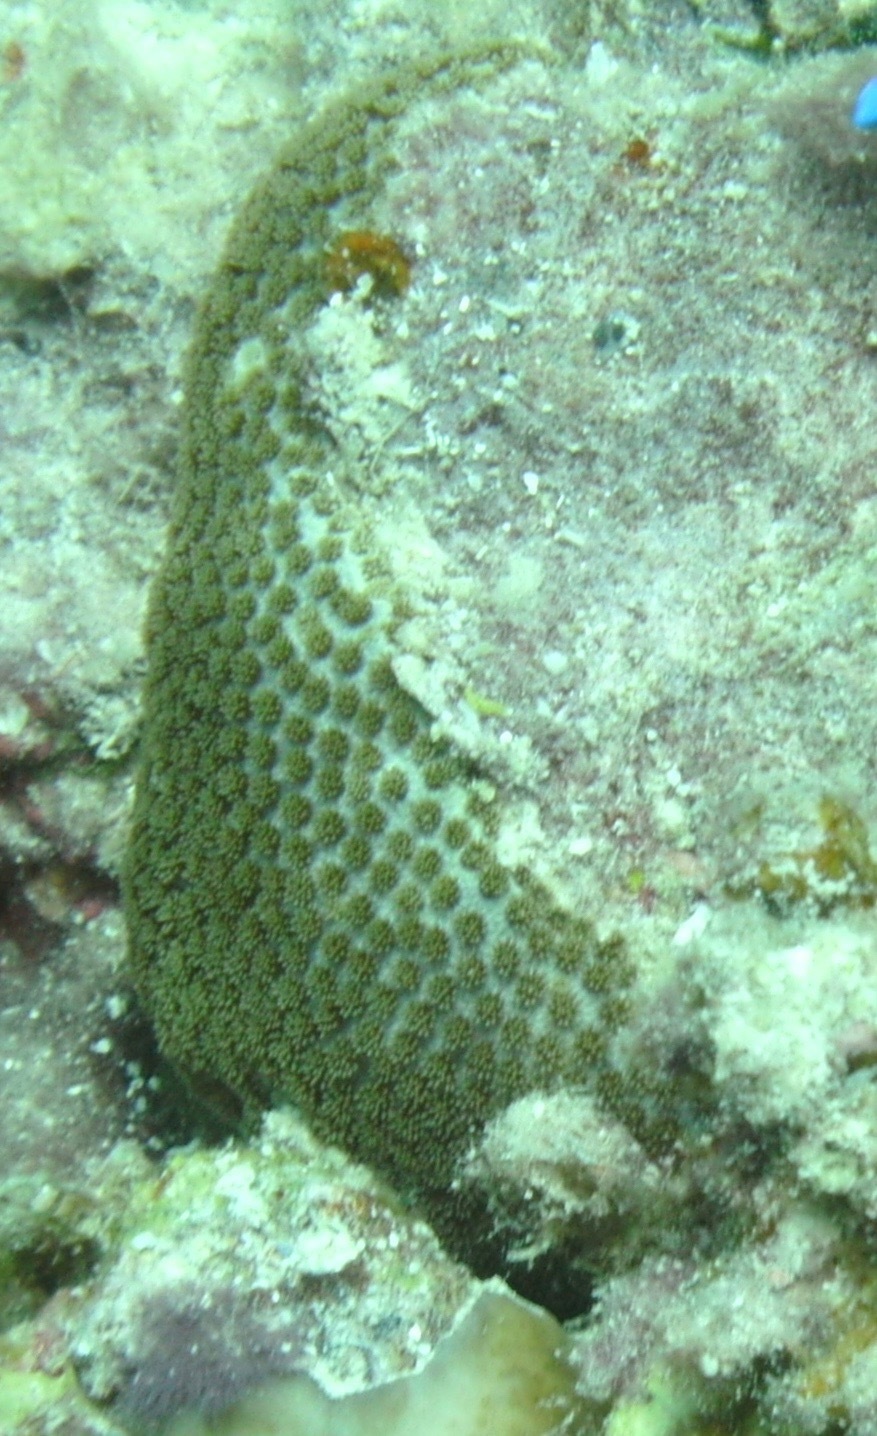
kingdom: Animalia
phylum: Cnidaria
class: Anthozoa
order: Scleractinia
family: Rhizangiidae
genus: Siderastrea
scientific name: Siderastrea savignyana
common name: African pillow coral
